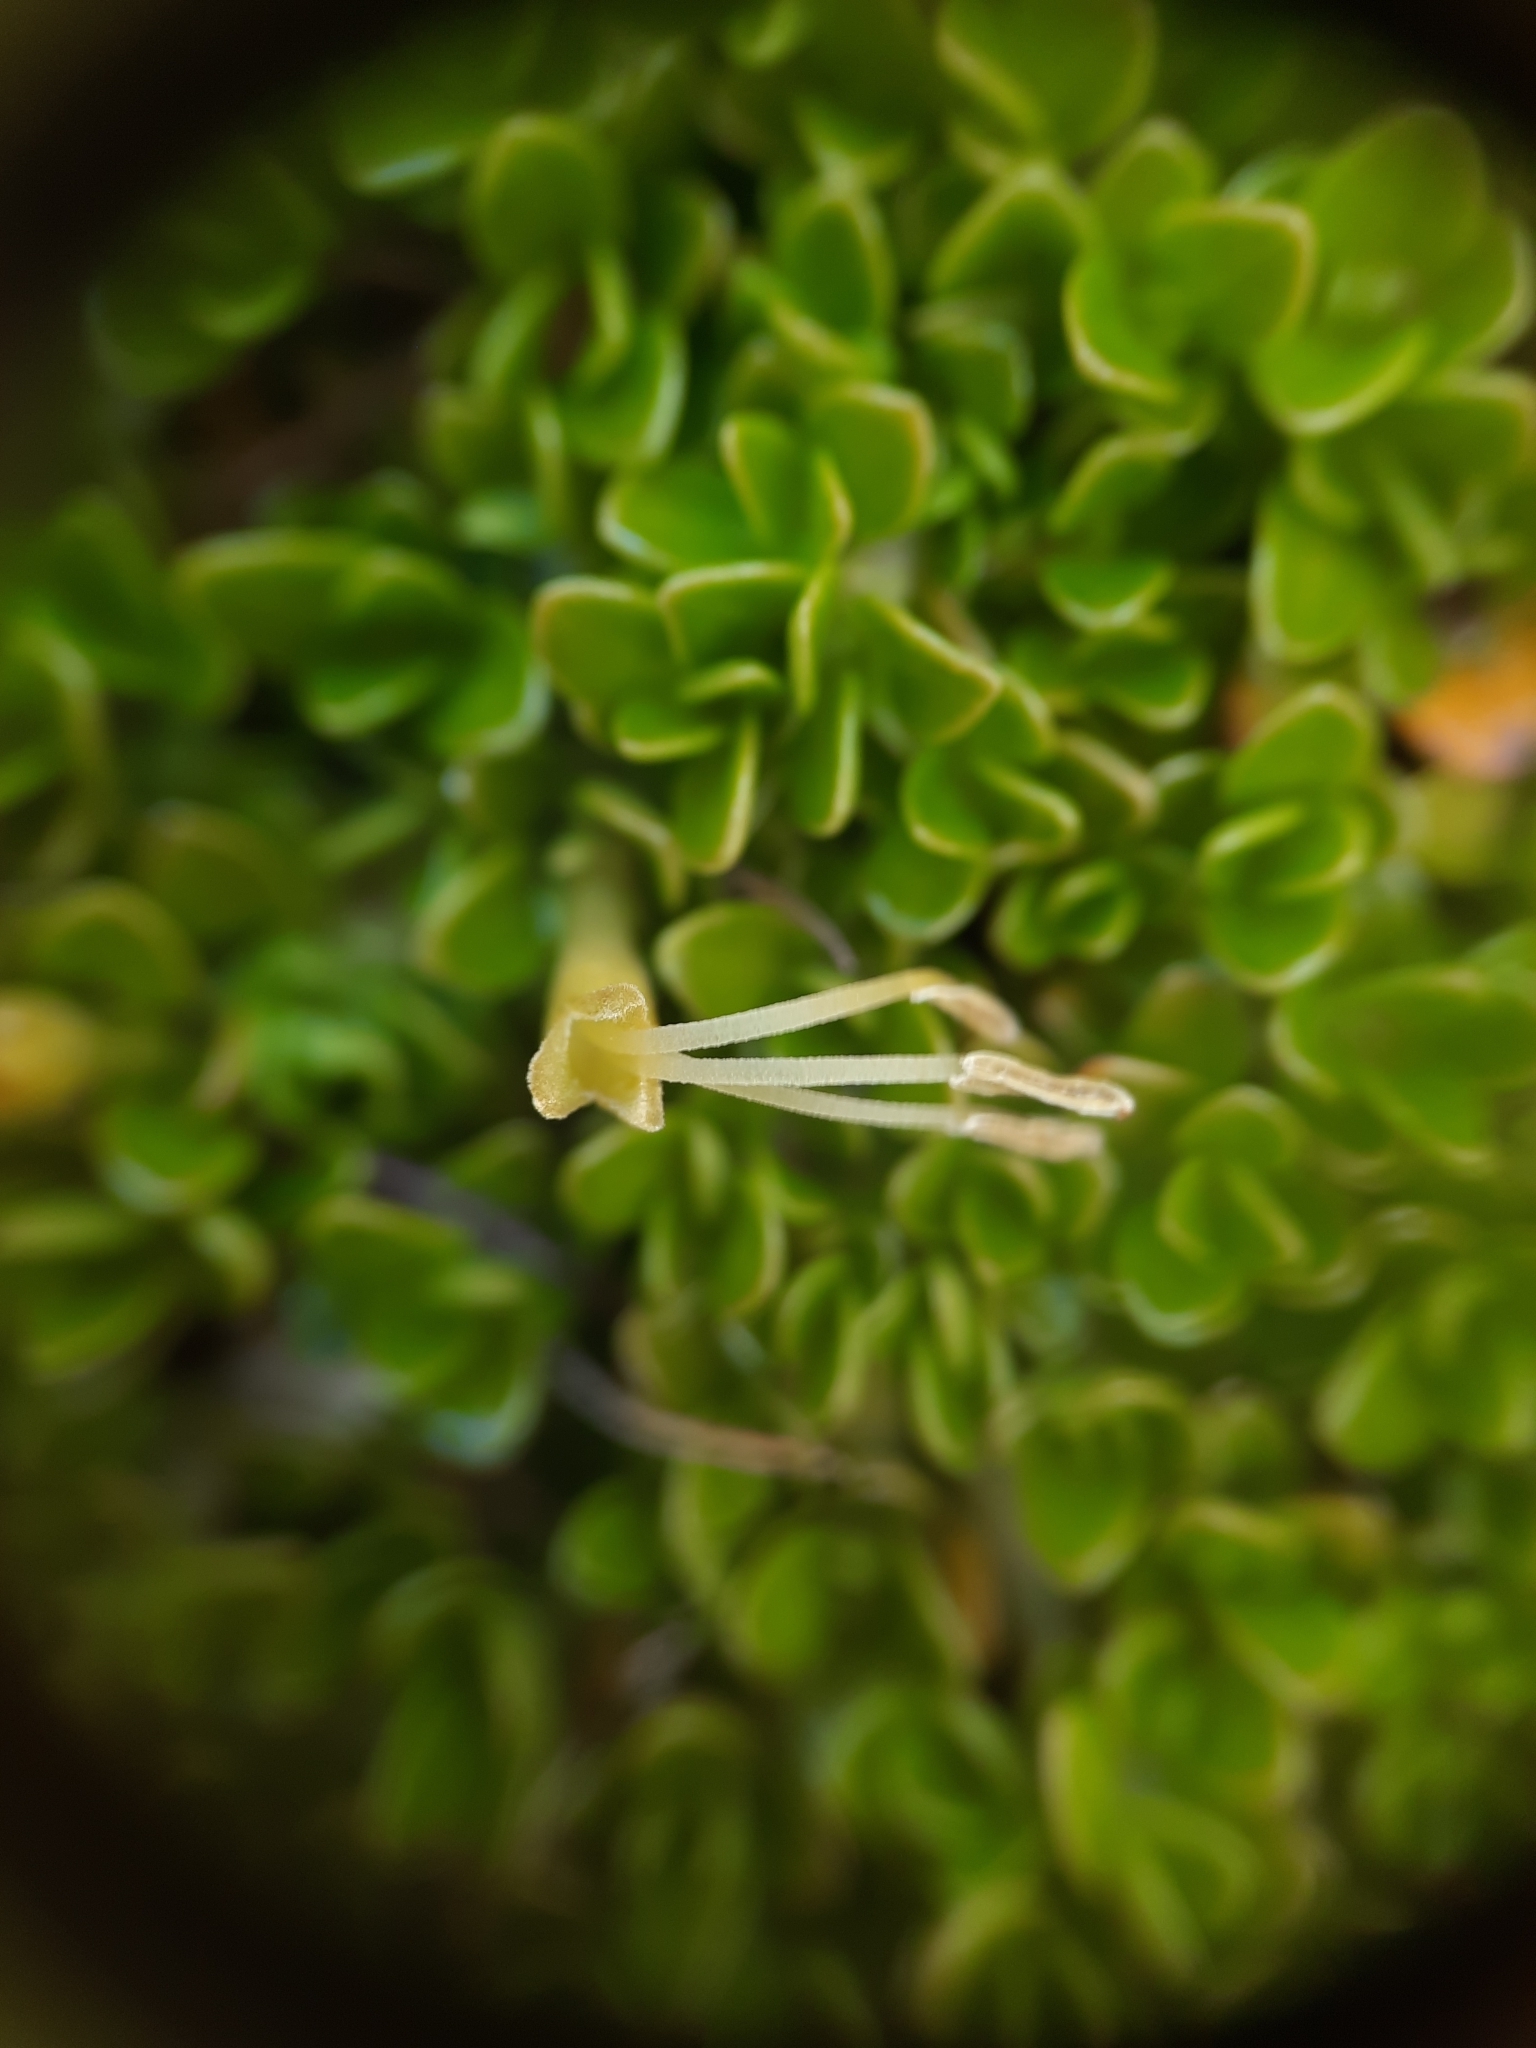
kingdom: Plantae
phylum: Tracheophyta
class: Magnoliopsida
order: Gentianales
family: Rubiaceae
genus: Coprosma
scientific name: Coprosma perpusilla
